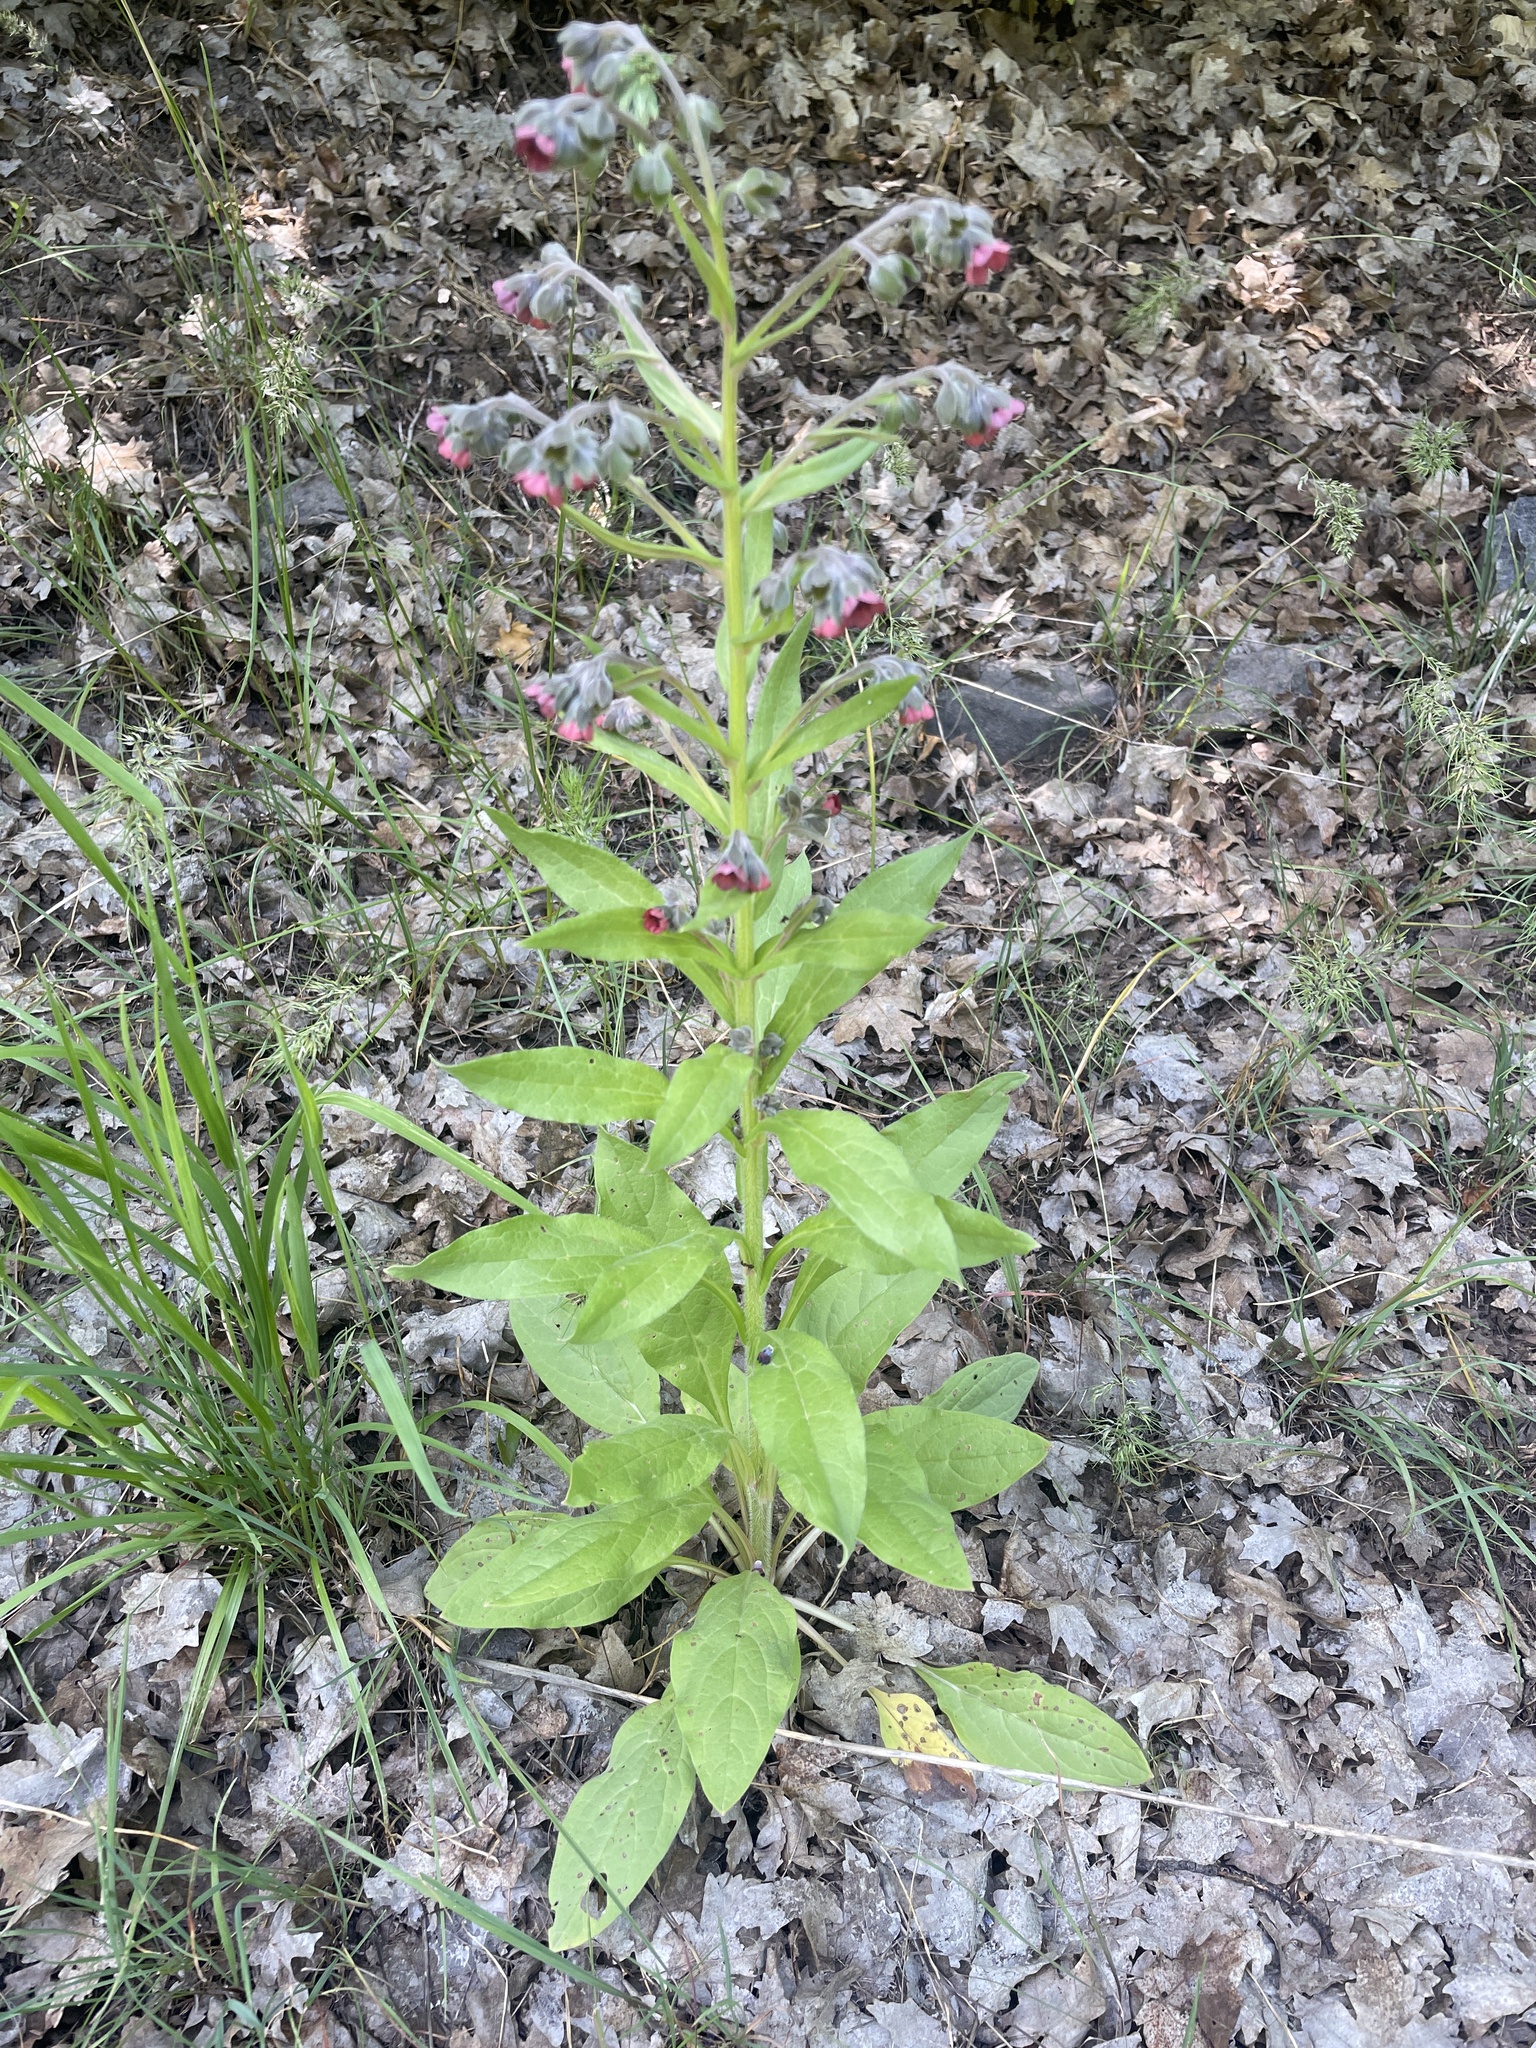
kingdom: Plantae
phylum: Tracheophyta
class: Magnoliopsida
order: Boraginales
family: Boraginaceae
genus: Cynoglossum
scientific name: Cynoglossum officinale
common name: Hound's-tongue
